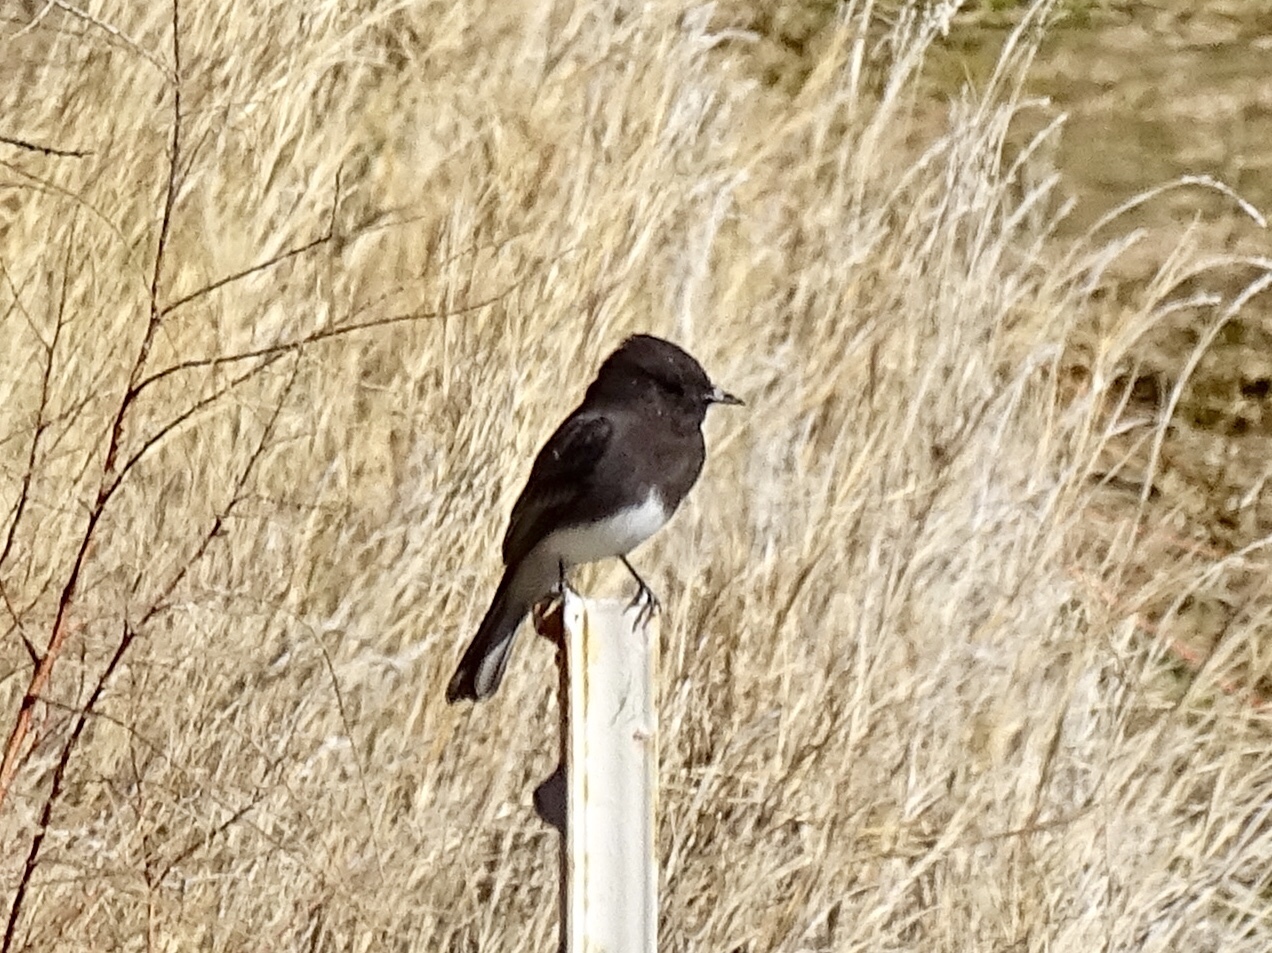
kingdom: Animalia
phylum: Chordata
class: Aves
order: Passeriformes
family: Tyrannidae
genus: Sayornis
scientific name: Sayornis nigricans
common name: Black phoebe
